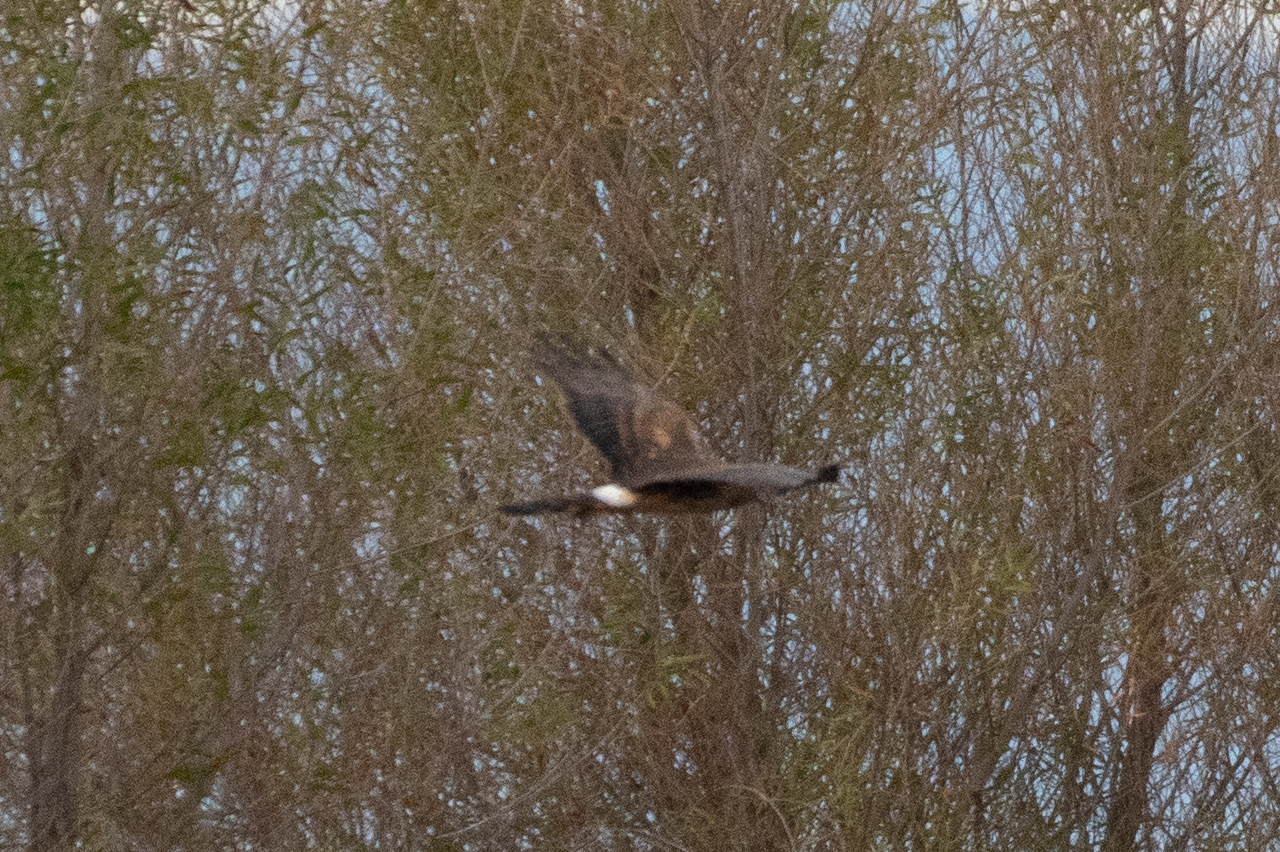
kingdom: Animalia
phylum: Chordata
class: Aves
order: Accipitriformes
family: Accipitridae
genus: Circus
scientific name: Circus cyaneus
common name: Hen harrier
